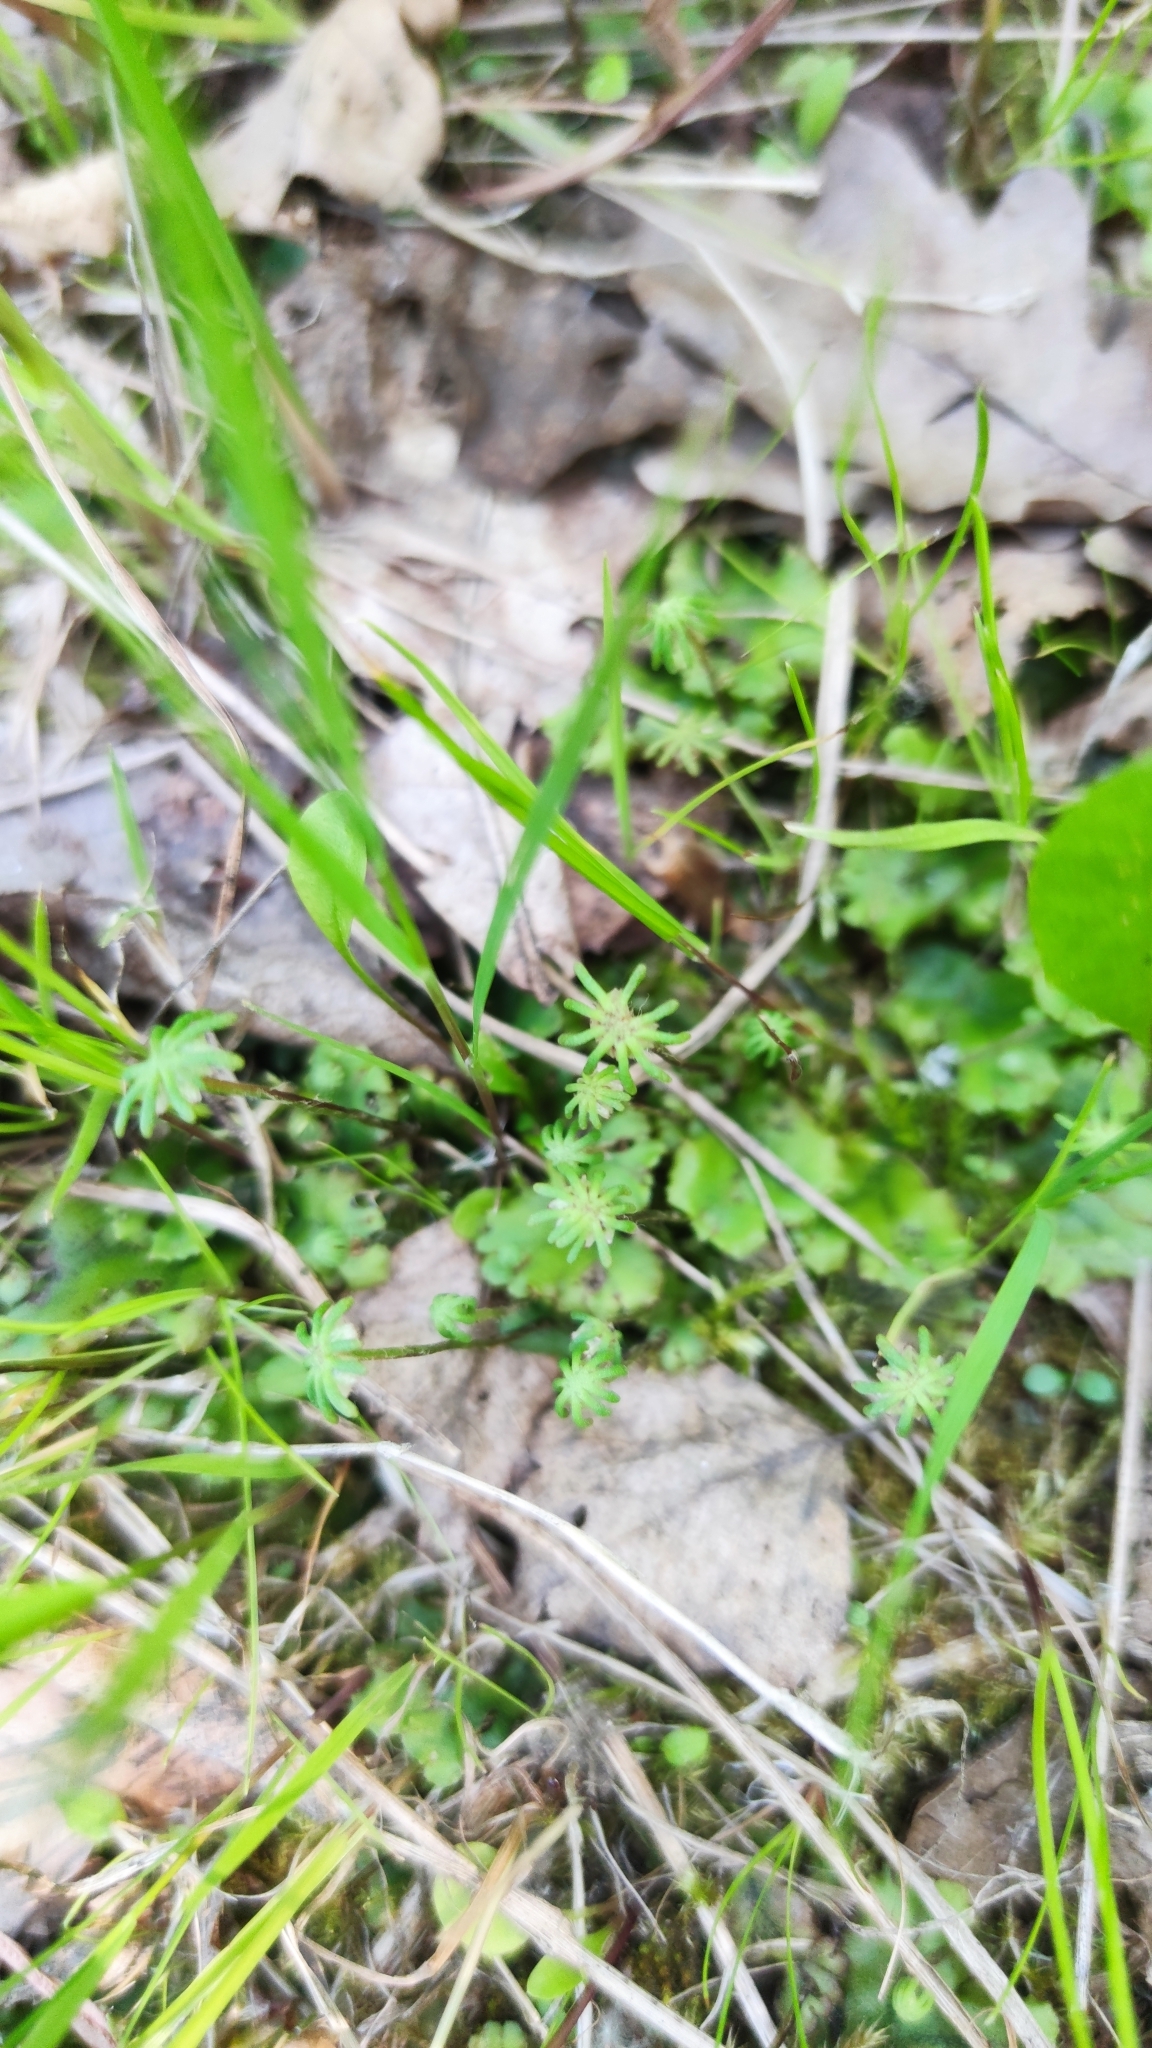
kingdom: Plantae
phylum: Marchantiophyta
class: Marchantiopsida
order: Marchantiales
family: Marchantiaceae
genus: Marchantia
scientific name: Marchantia polymorpha
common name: Common liverwort
